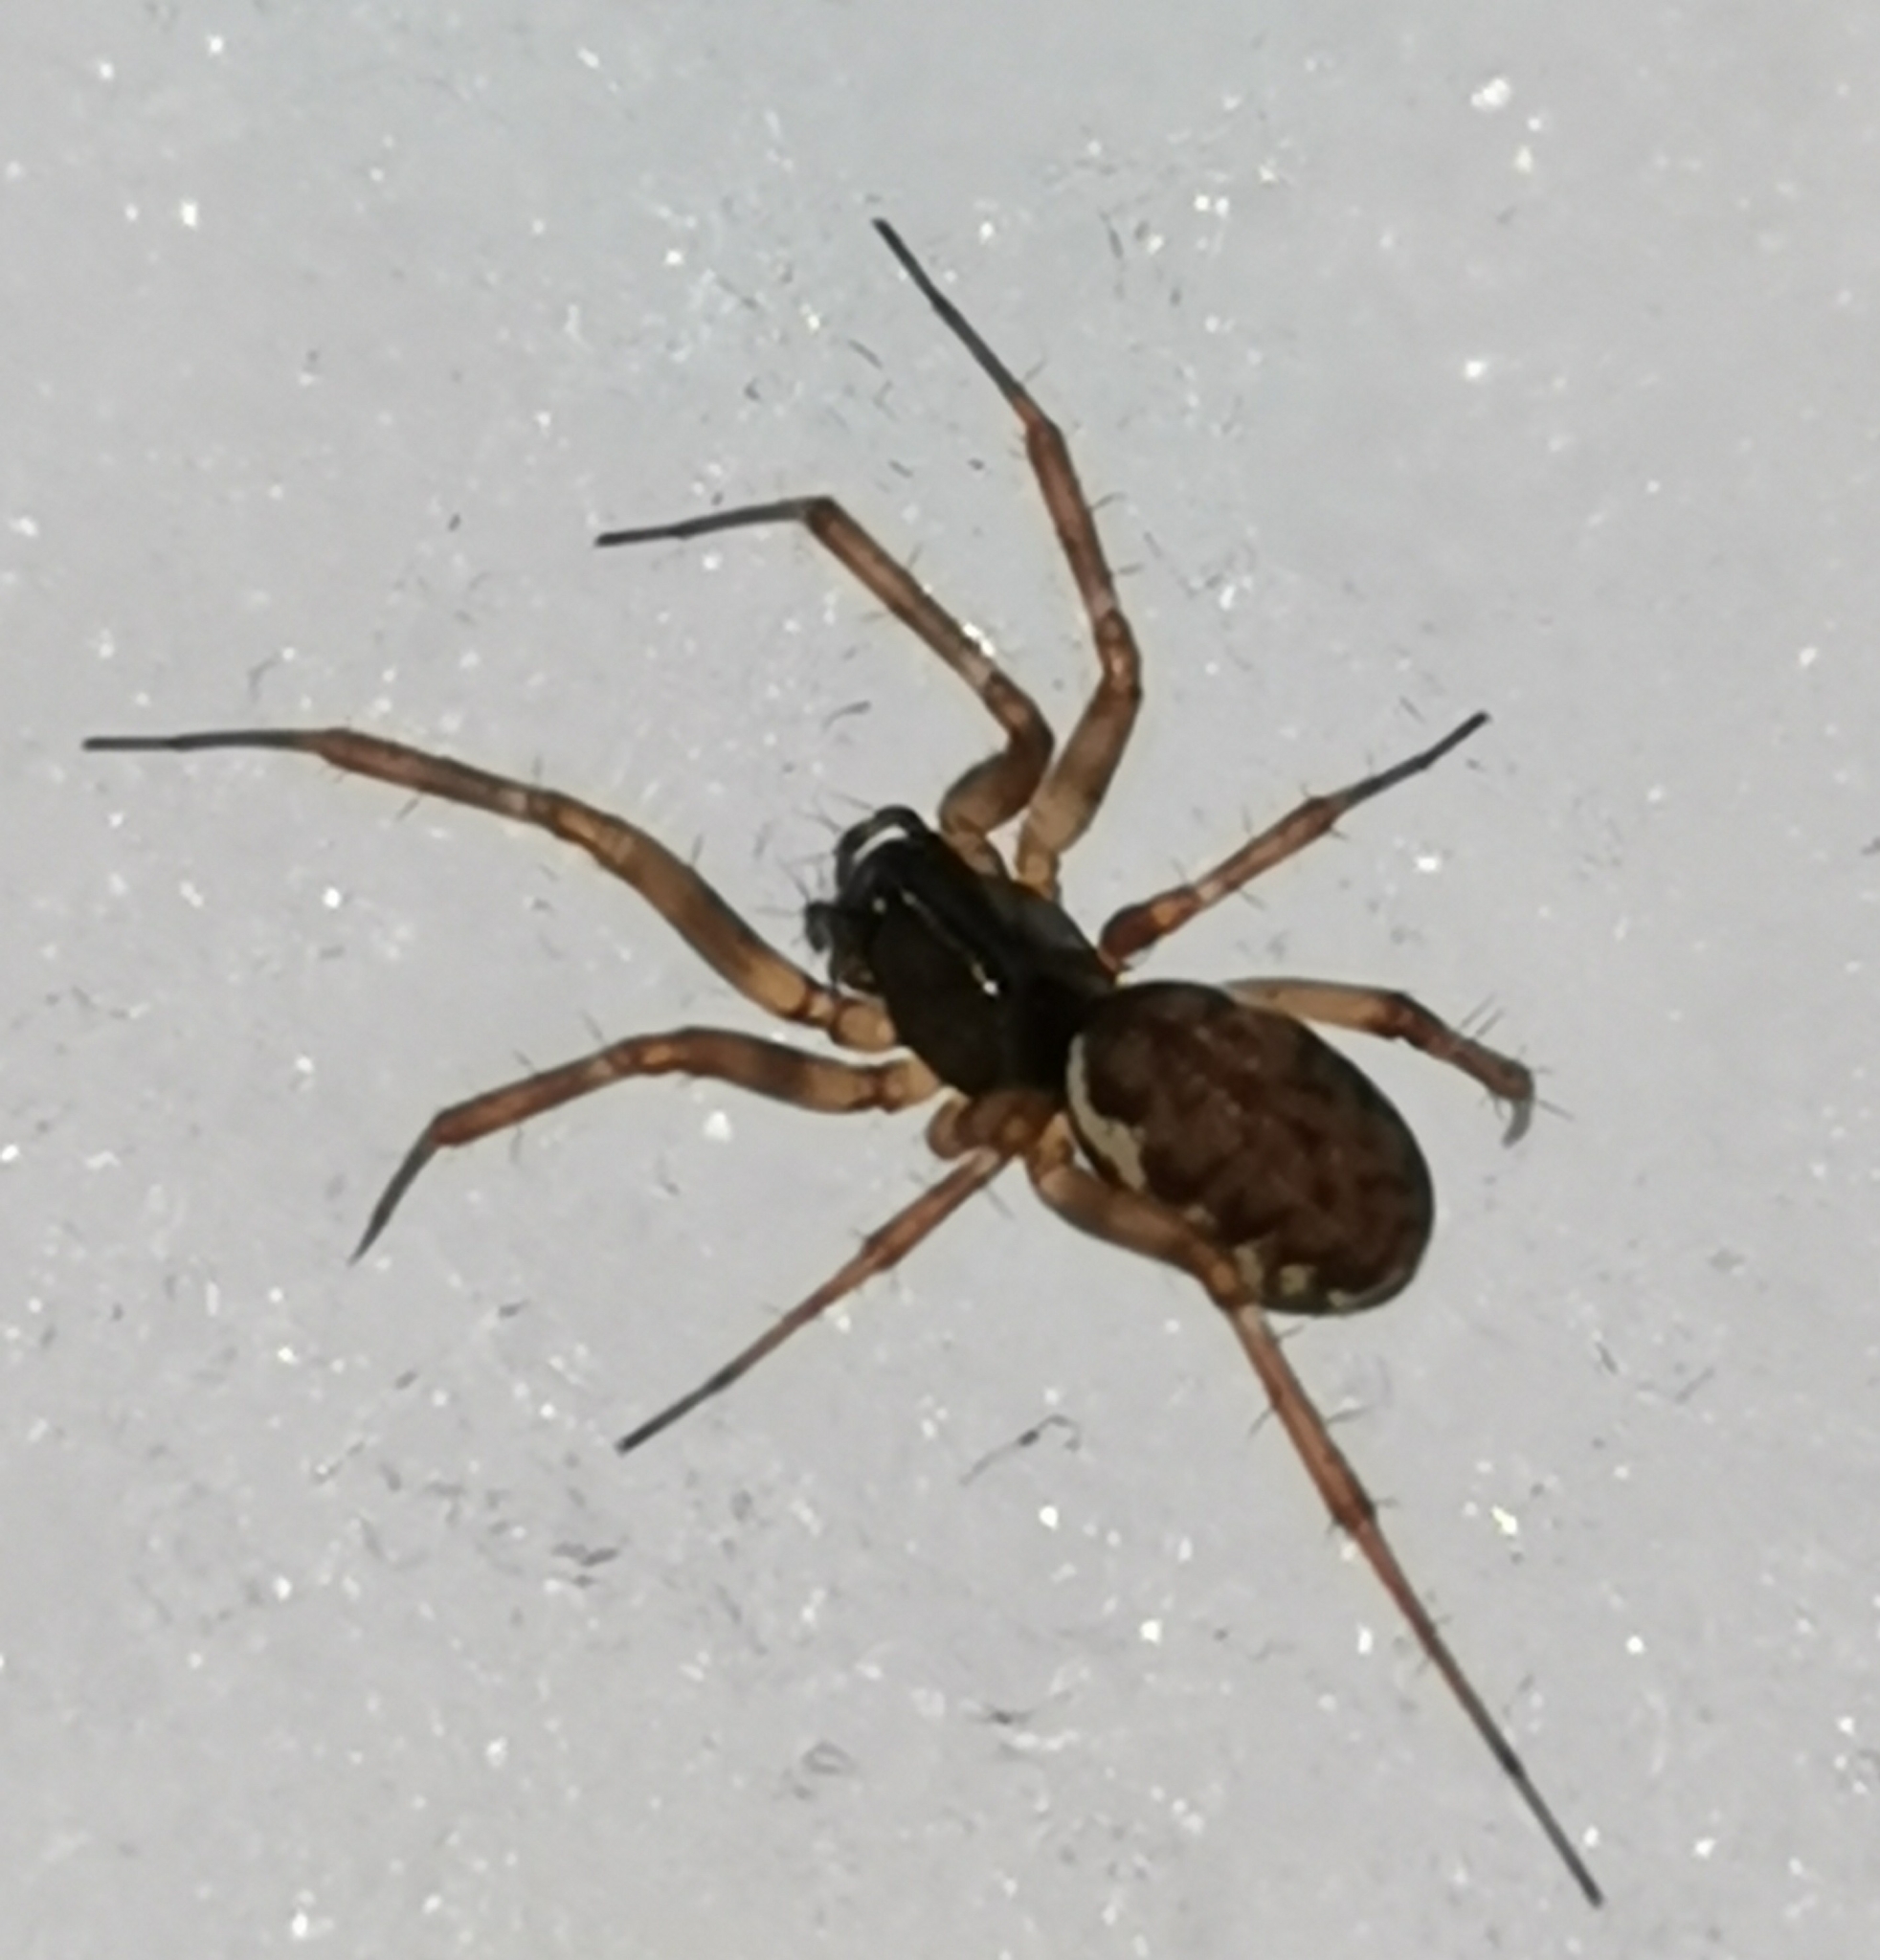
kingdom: Animalia
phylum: Arthropoda
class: Arachnida
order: Araneae
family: Linyphiidae
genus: Neriene
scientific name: Neriene clathrata
